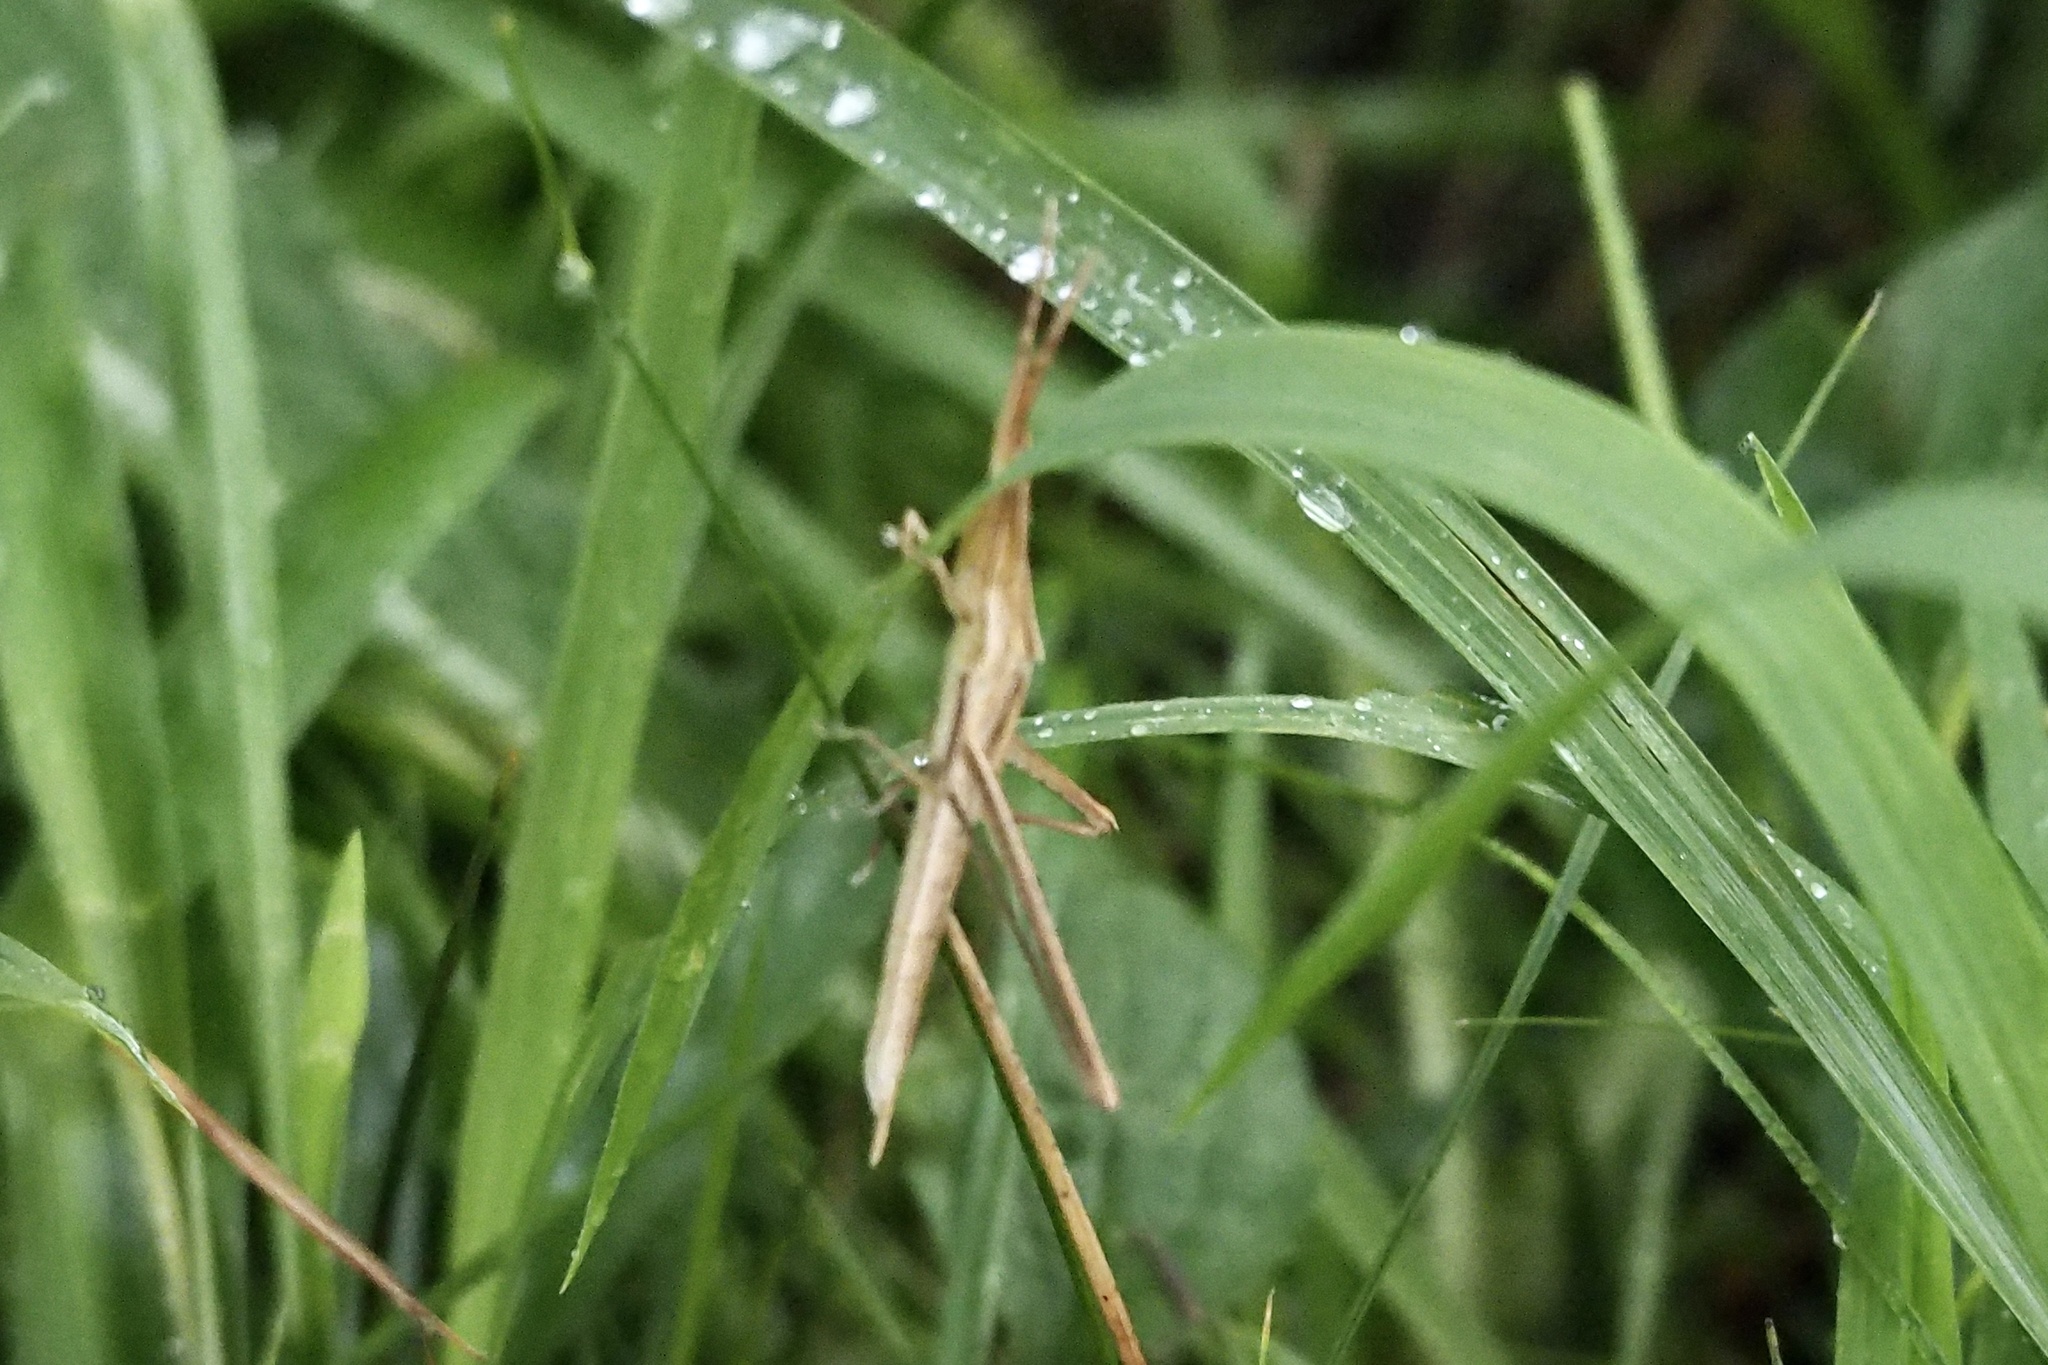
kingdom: Animalia
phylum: Arthropoda
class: Insecta
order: Orthoptera
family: Acrididae
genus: Acrida
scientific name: Acrida cinerea
